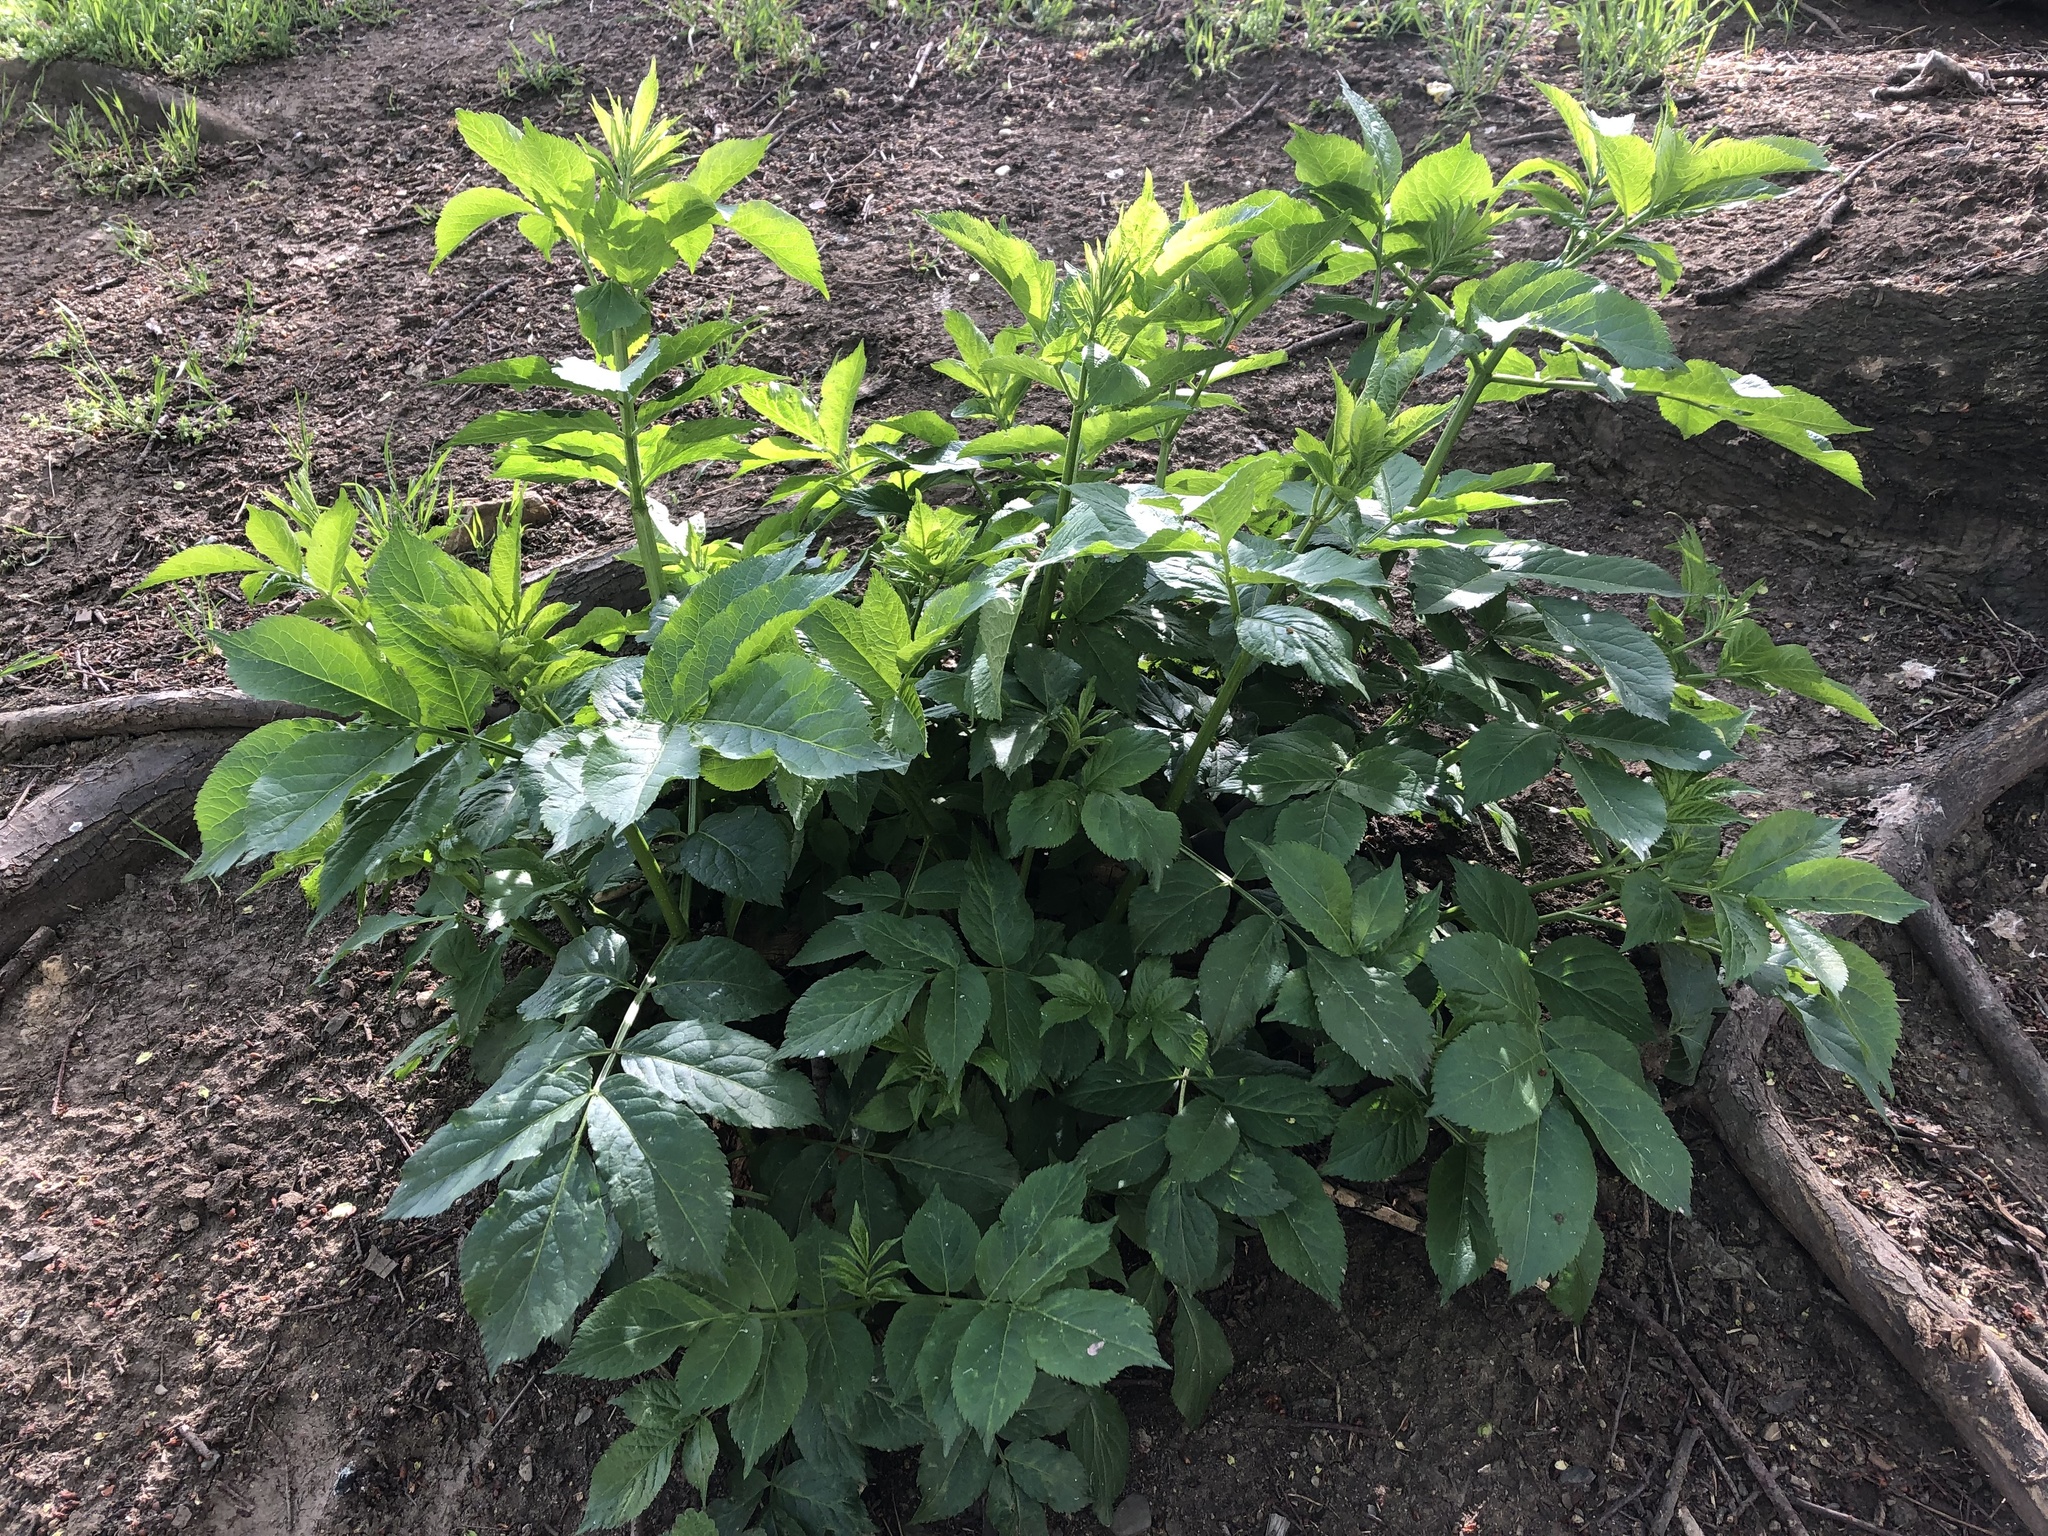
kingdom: Plantae
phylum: Tracheophyta
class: Magnoliopsida
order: Dipsacales
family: Viburnaceae
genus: Sambucus
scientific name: Sambucus nigra
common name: Elder
